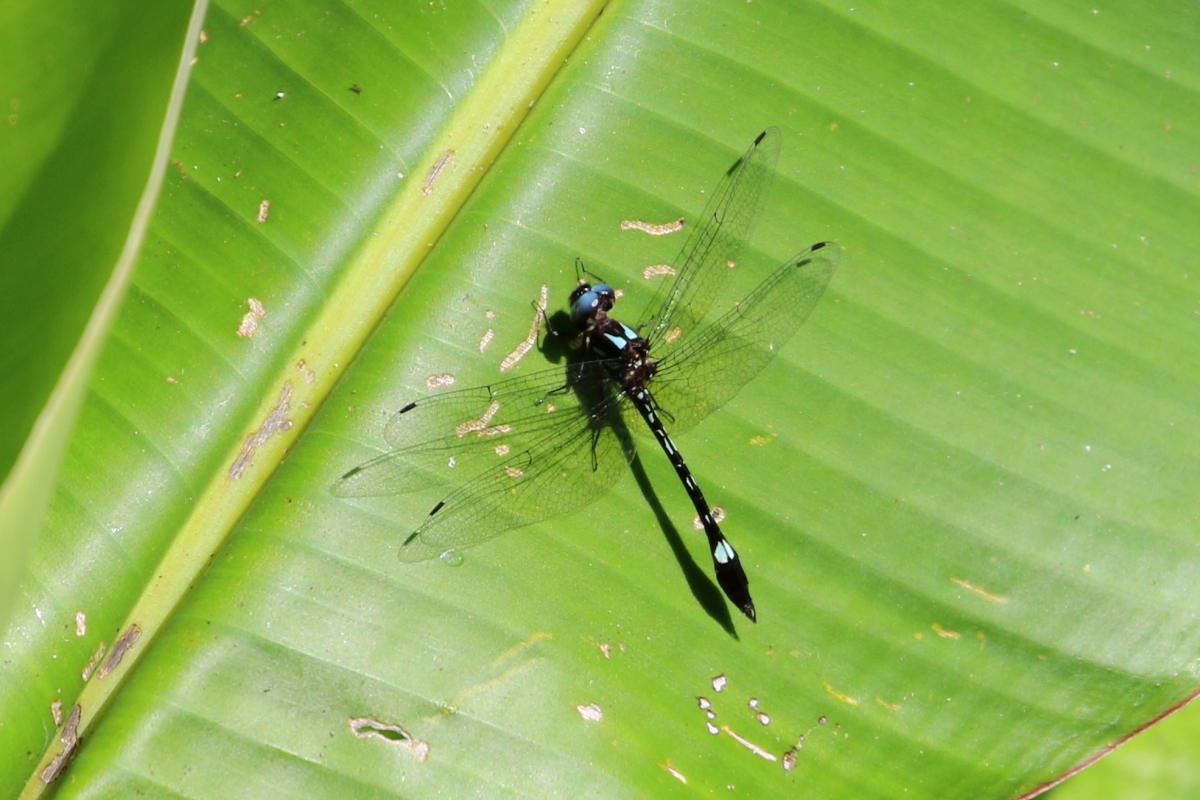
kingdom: Animalia
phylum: Arthropoda
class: Insecta
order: Odonata
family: Libellulidae
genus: Macrothemis
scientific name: Macrothemis pseudimitans
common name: White-tailed sylph
